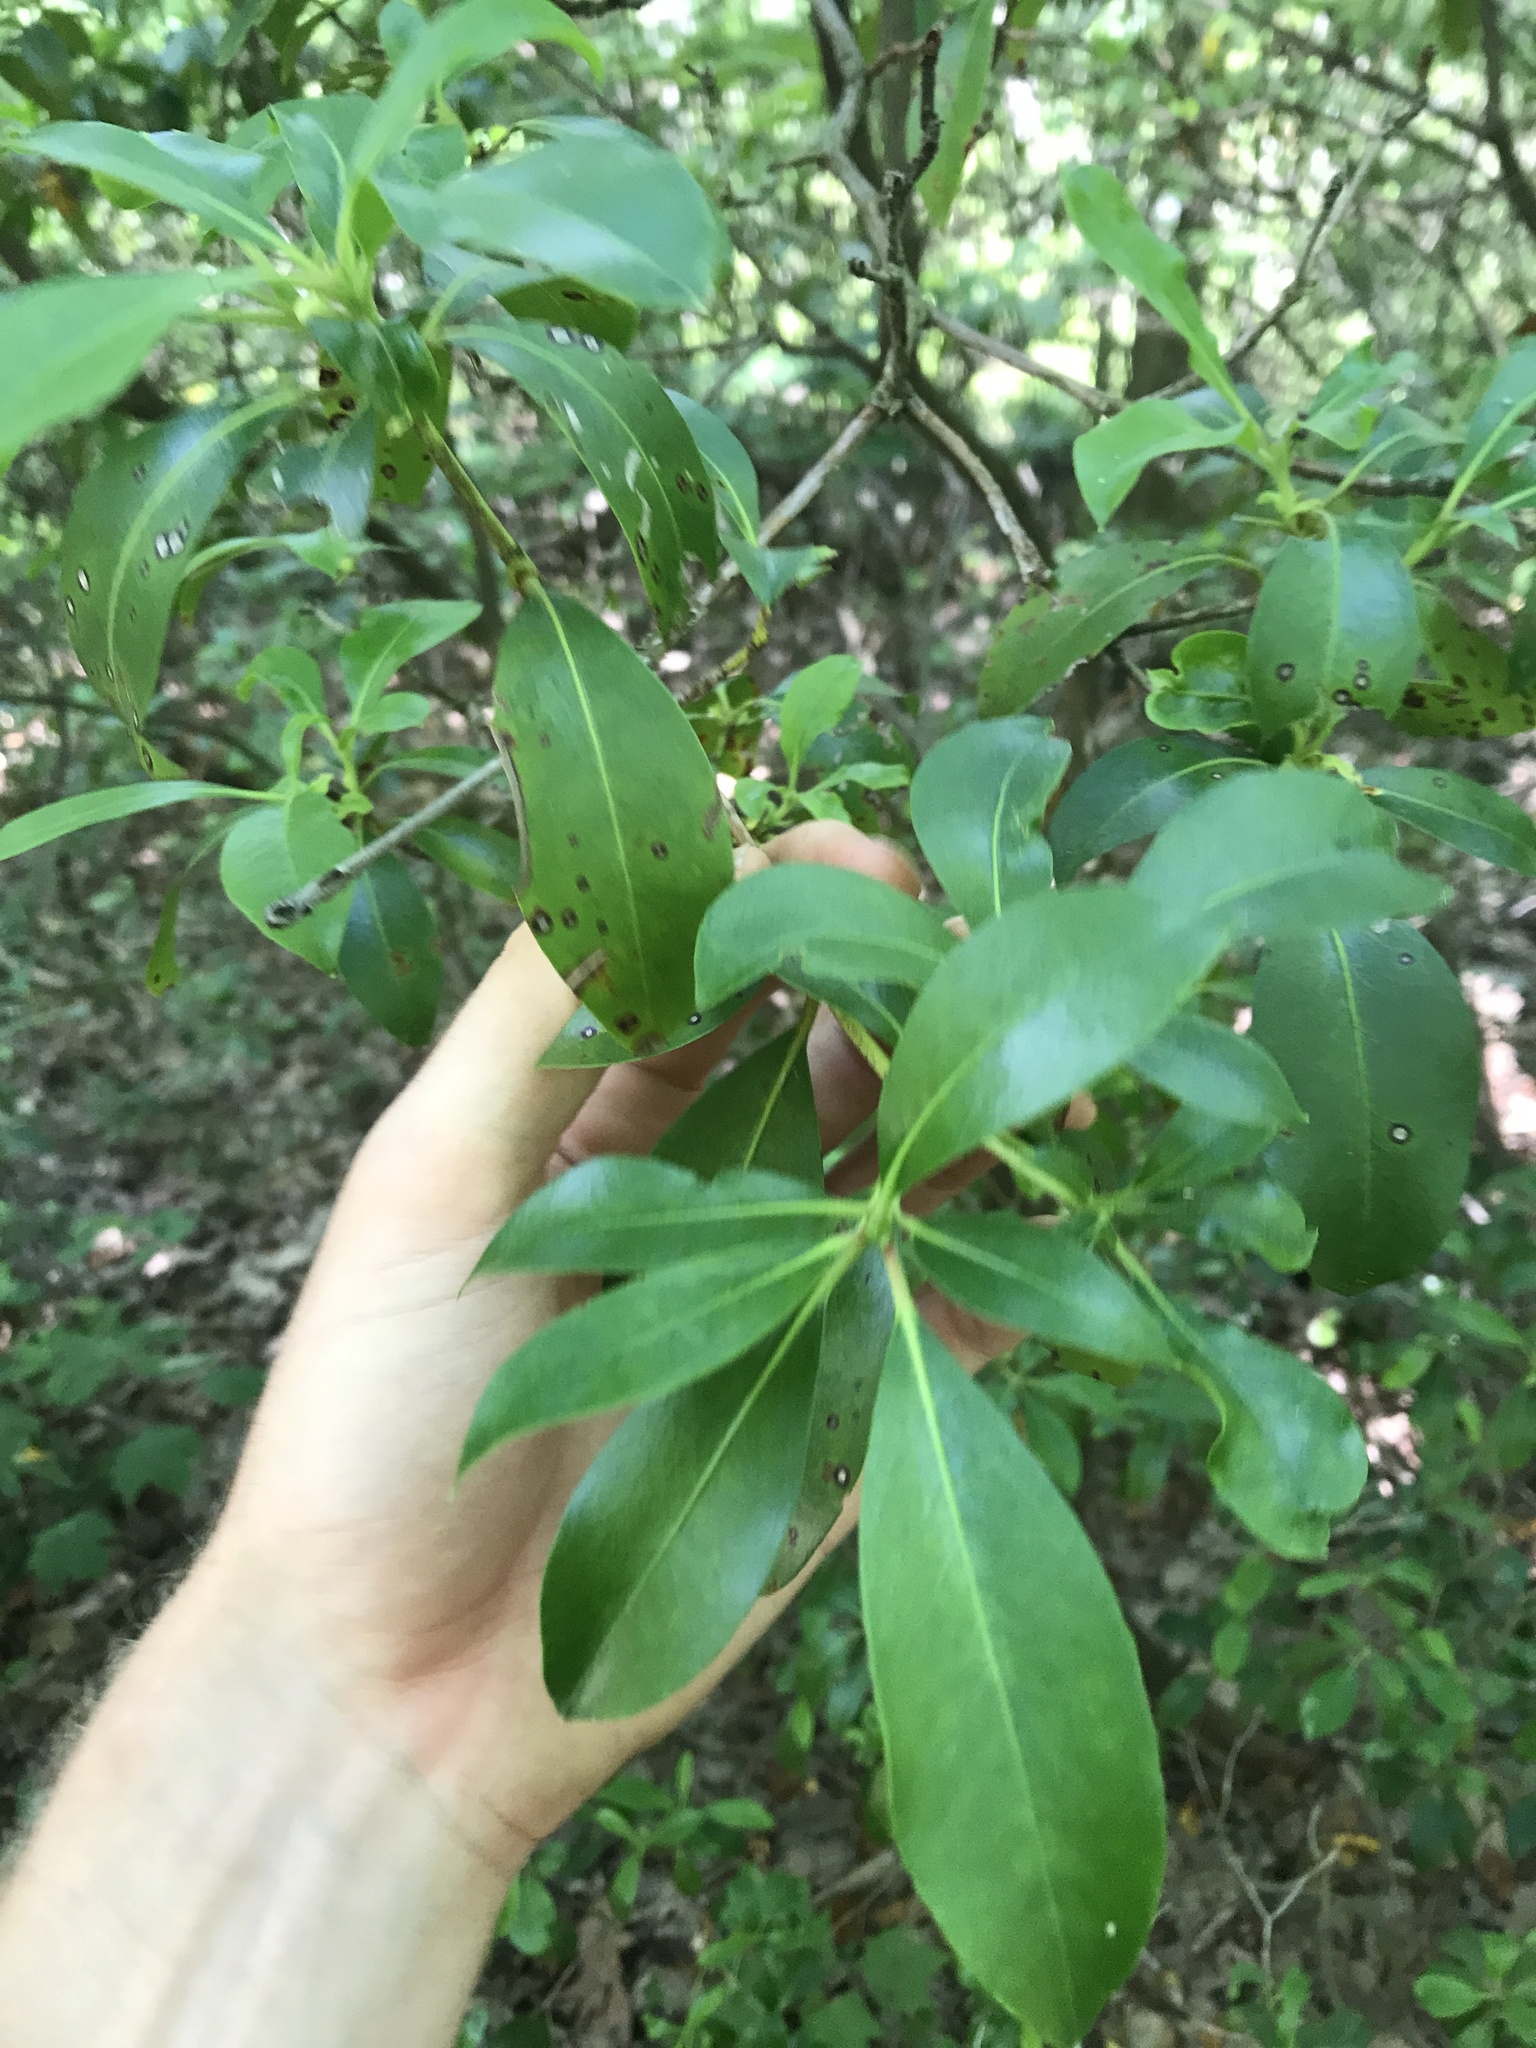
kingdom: Plantae
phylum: Tracheophyta
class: Magnoliopsida
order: Ericales
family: Ericaceae
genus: Kalmia
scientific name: Kalmia latifolia
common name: Mountain-laurel
